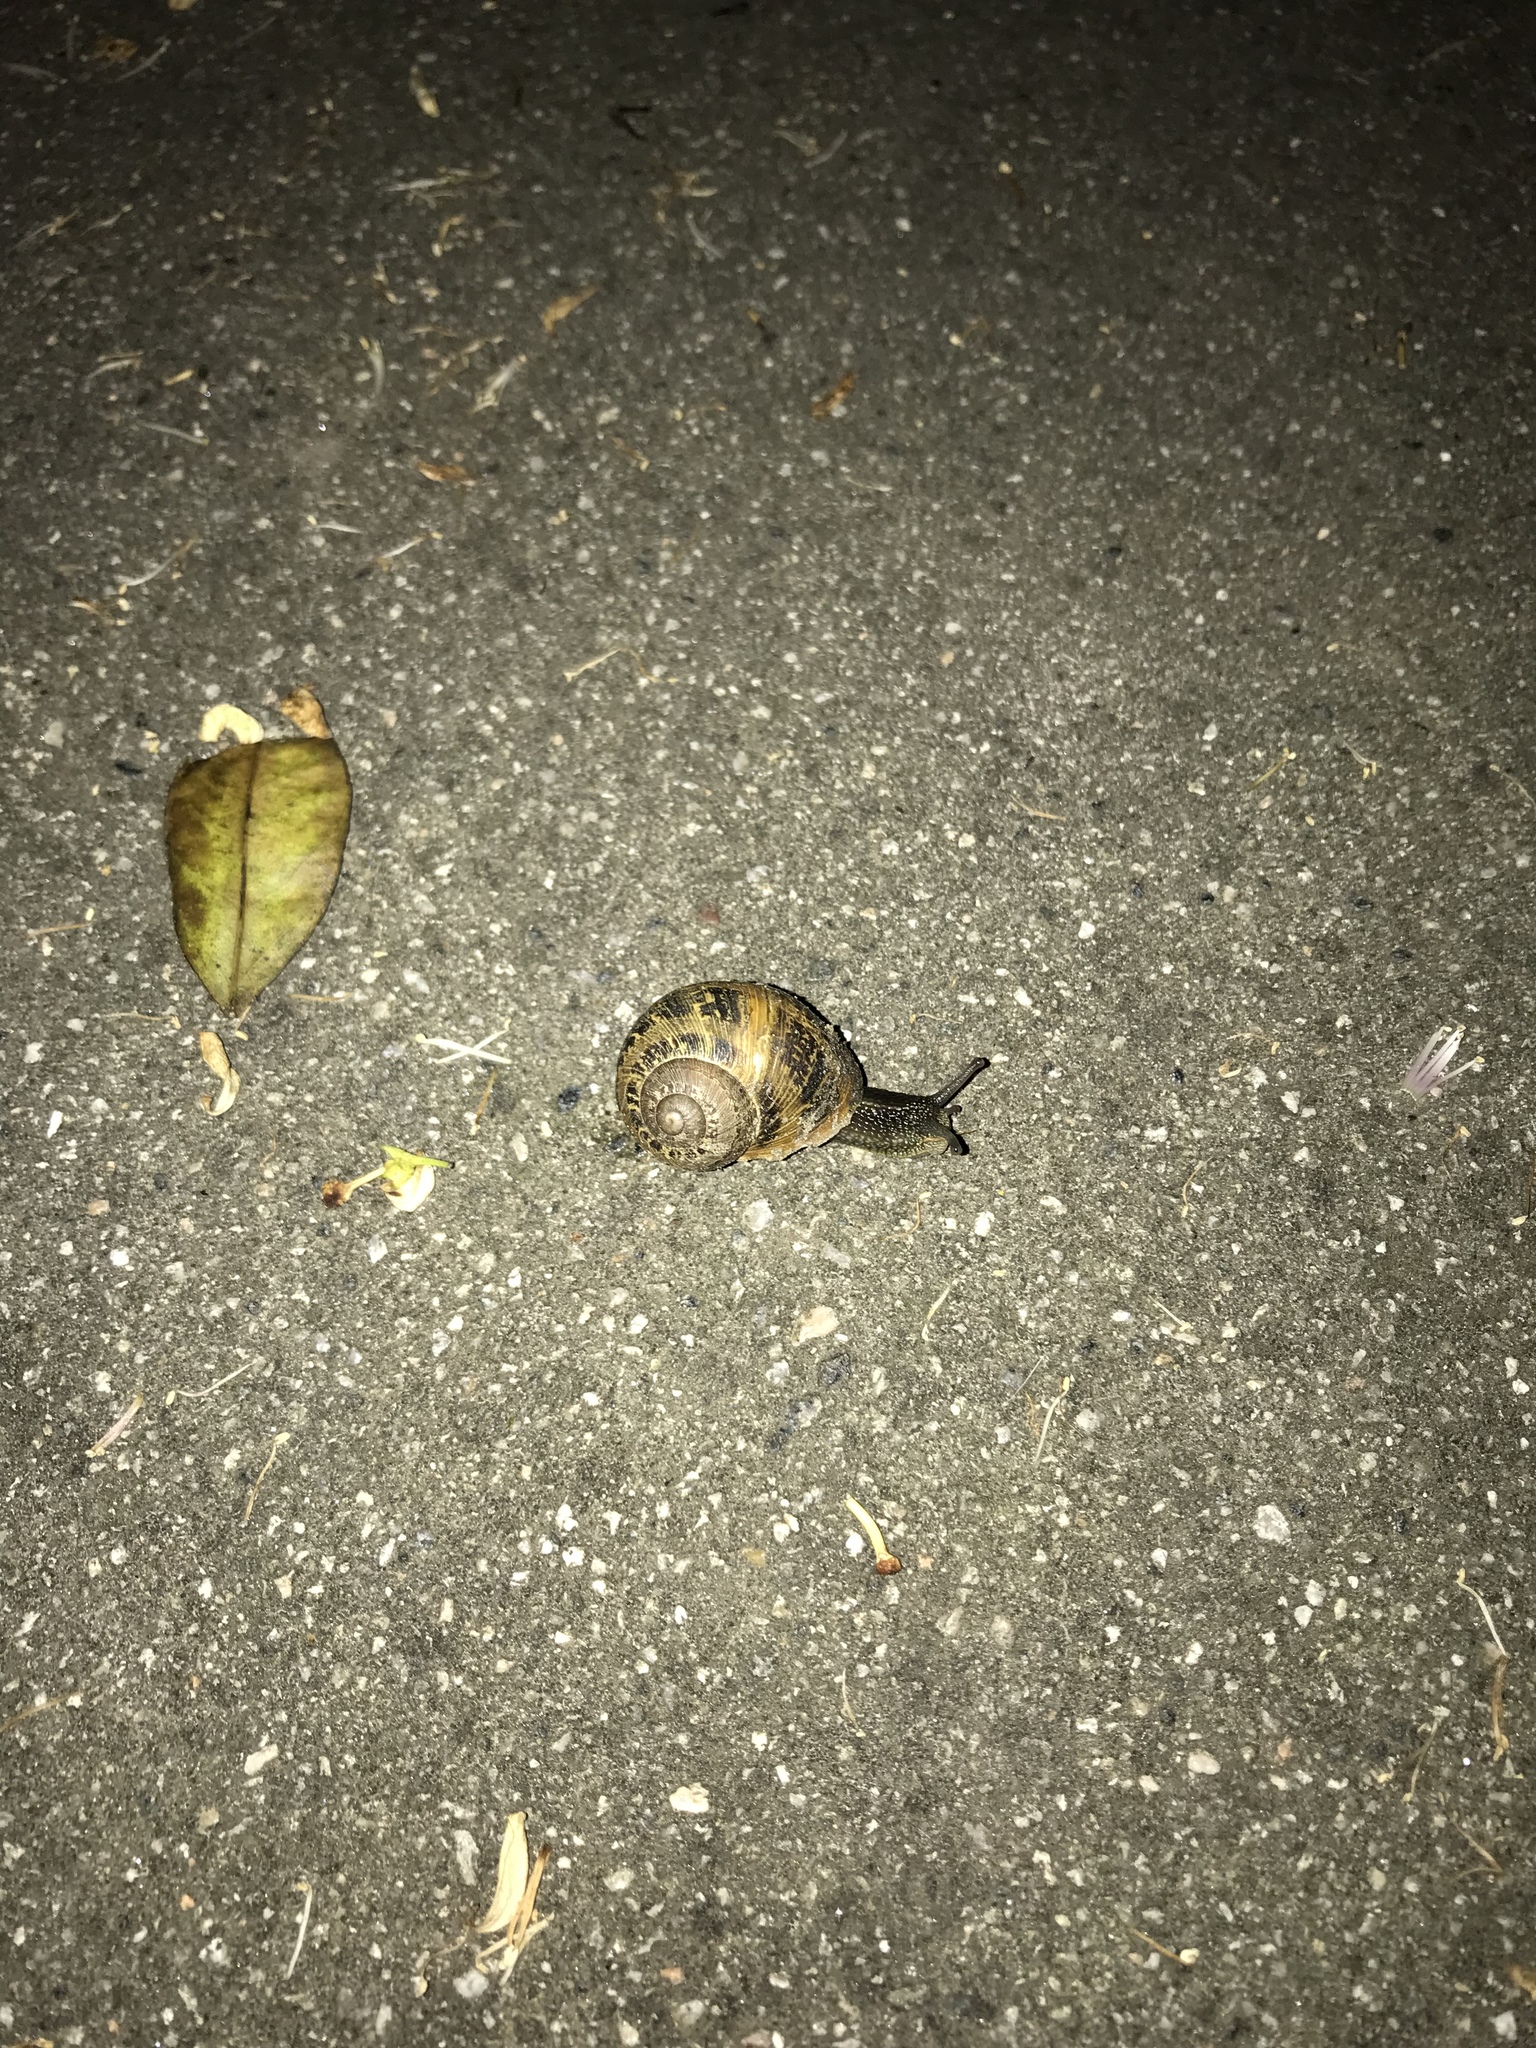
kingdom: Animalia
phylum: Mollusca
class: Gastropoda
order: Stylommatophora
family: Helicidae
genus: Cornu
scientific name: Cornu aspersum
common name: Brown garden snail
